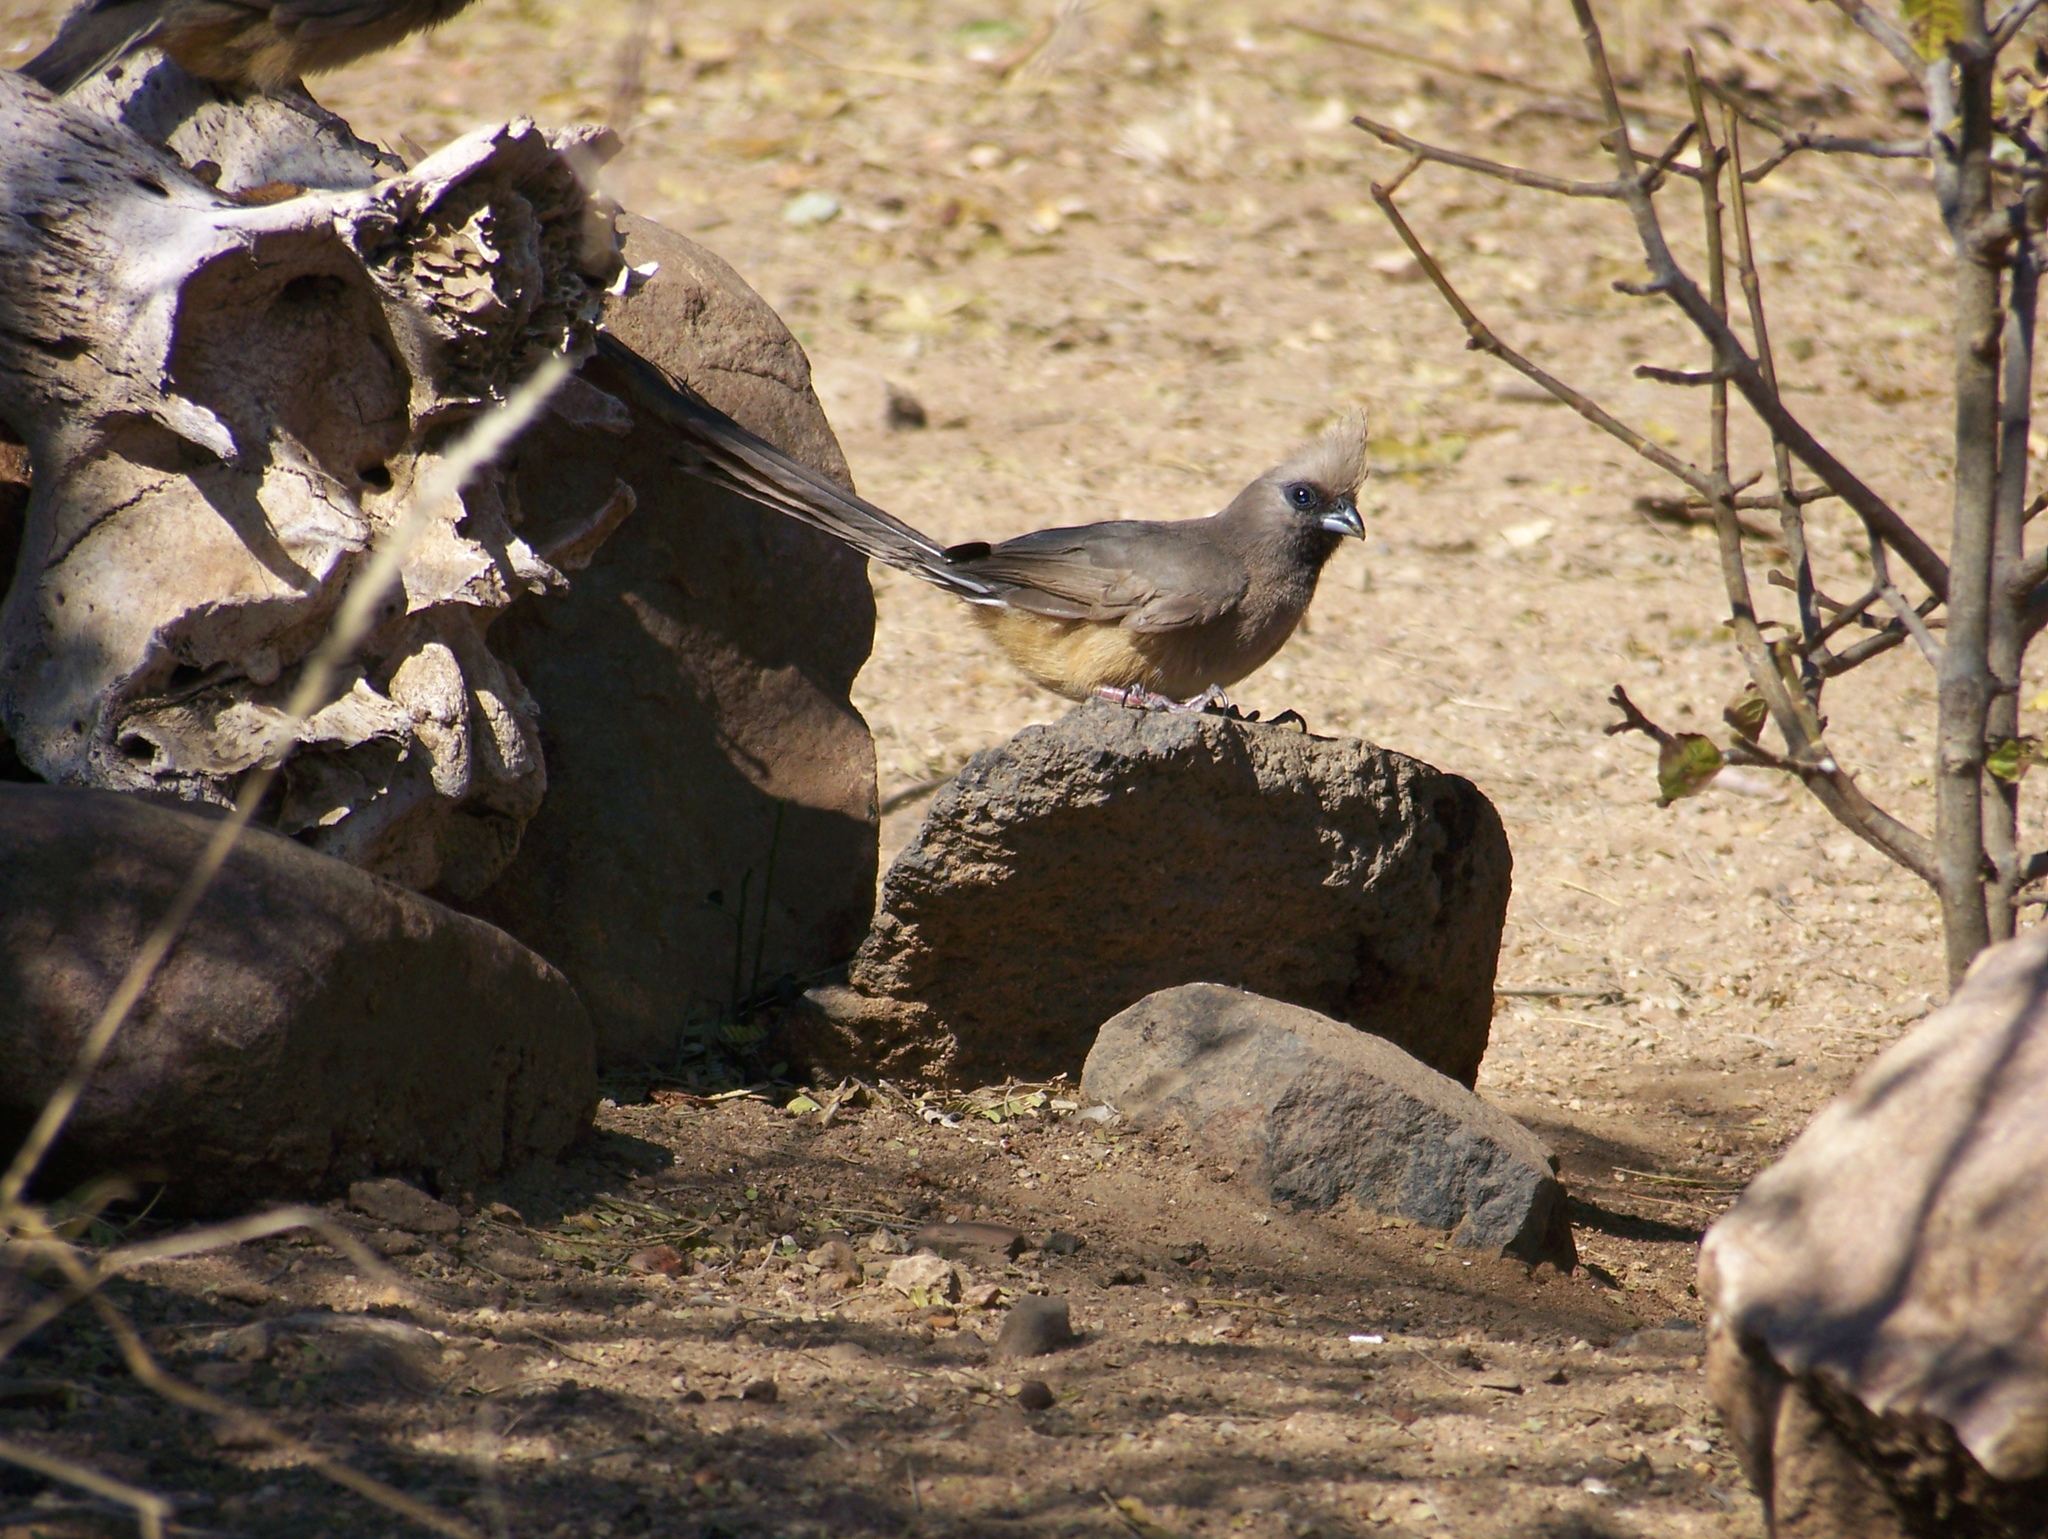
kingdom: Animalia
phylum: Chordata
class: Aves
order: Coliiformes
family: Coliidae
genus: Colius
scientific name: Colius striatus
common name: Speckled mousebird
